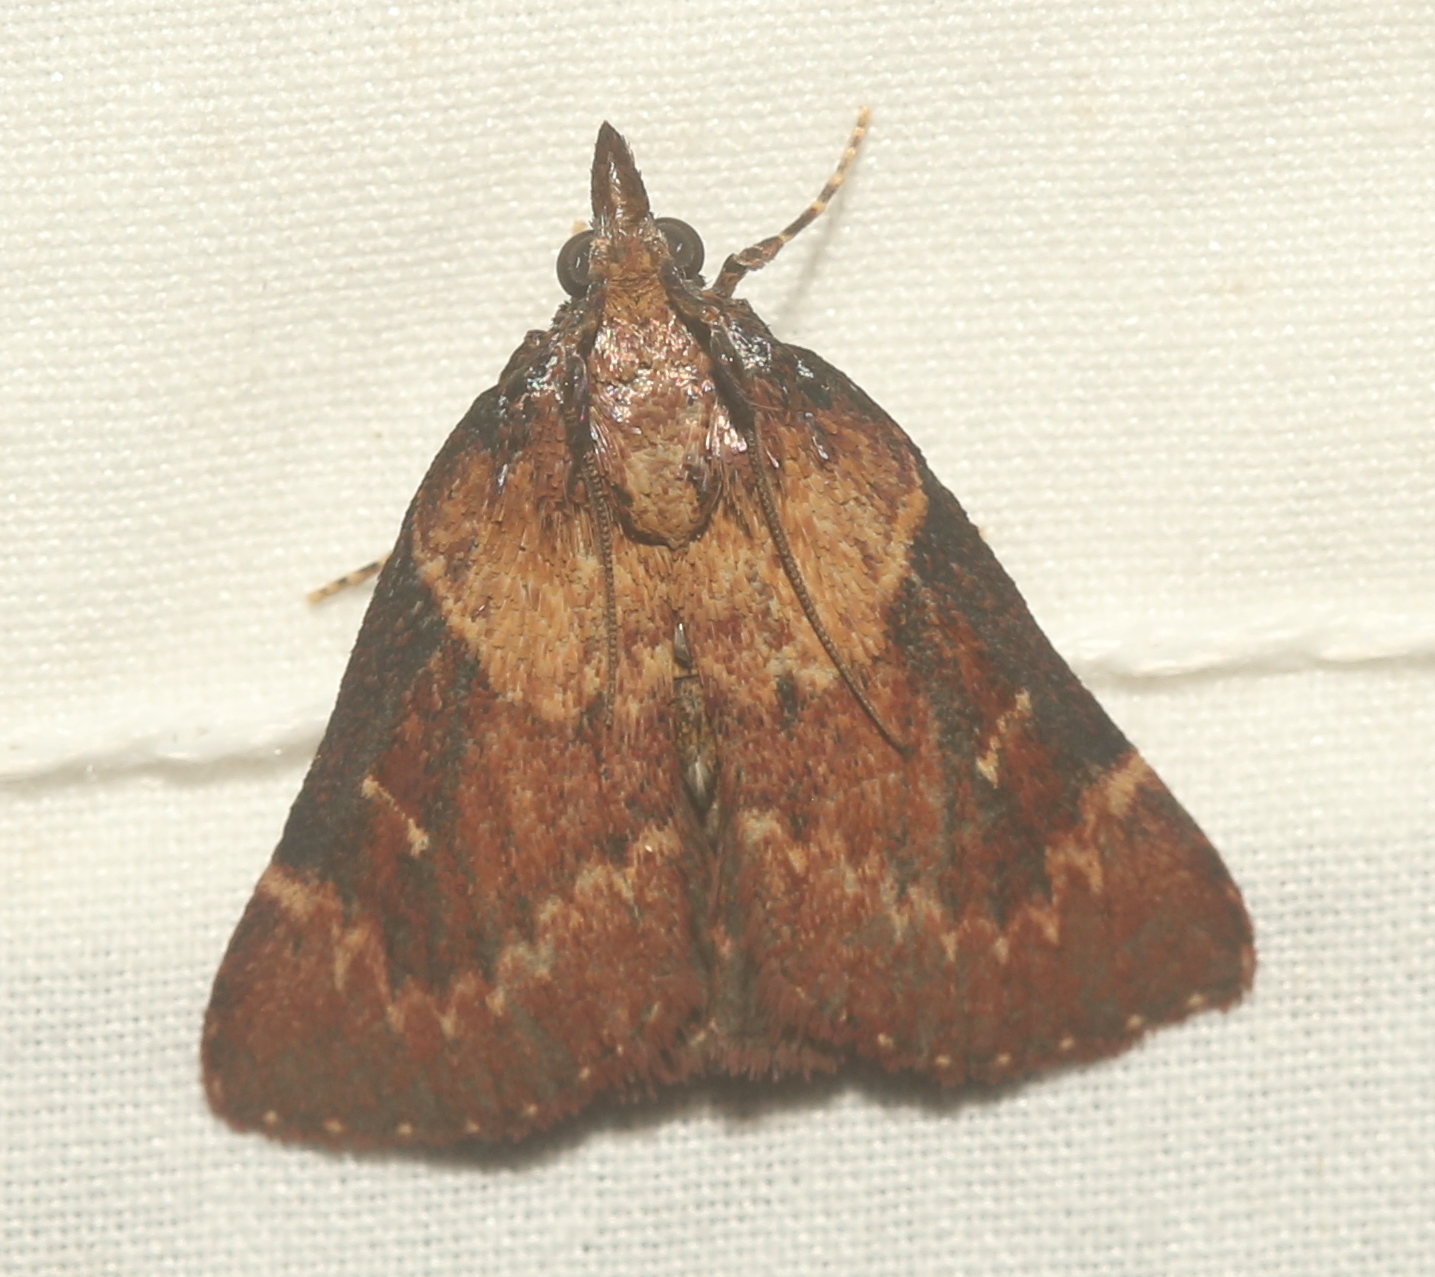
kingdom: Animalia
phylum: Arthropoda
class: Insecta
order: Lepidoptera
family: Pyralidae
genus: Omphalocera
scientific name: Omphalocera munroei
